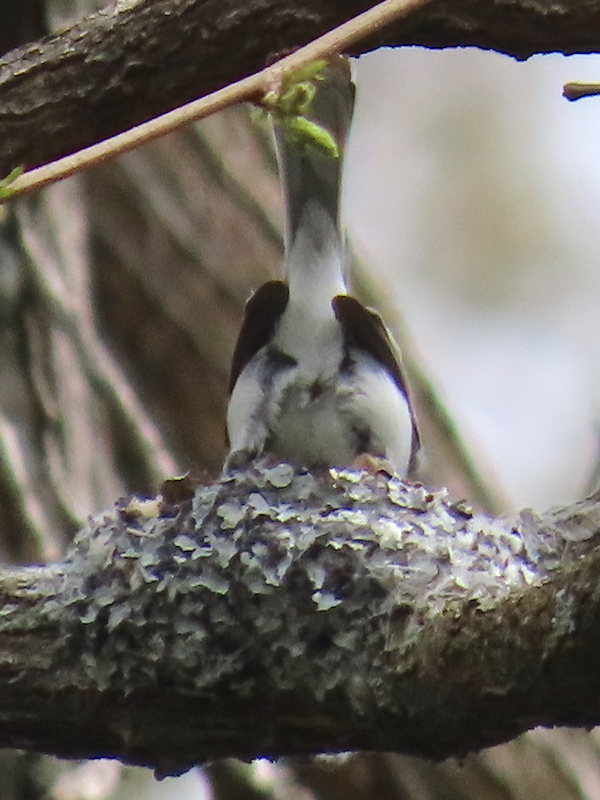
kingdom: Animalia
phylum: Chordata
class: Aves
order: Passeriformes
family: Polioptilidae
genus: Polioptila
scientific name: Polioptila caerulea
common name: Blue-gray gnatcatcher
